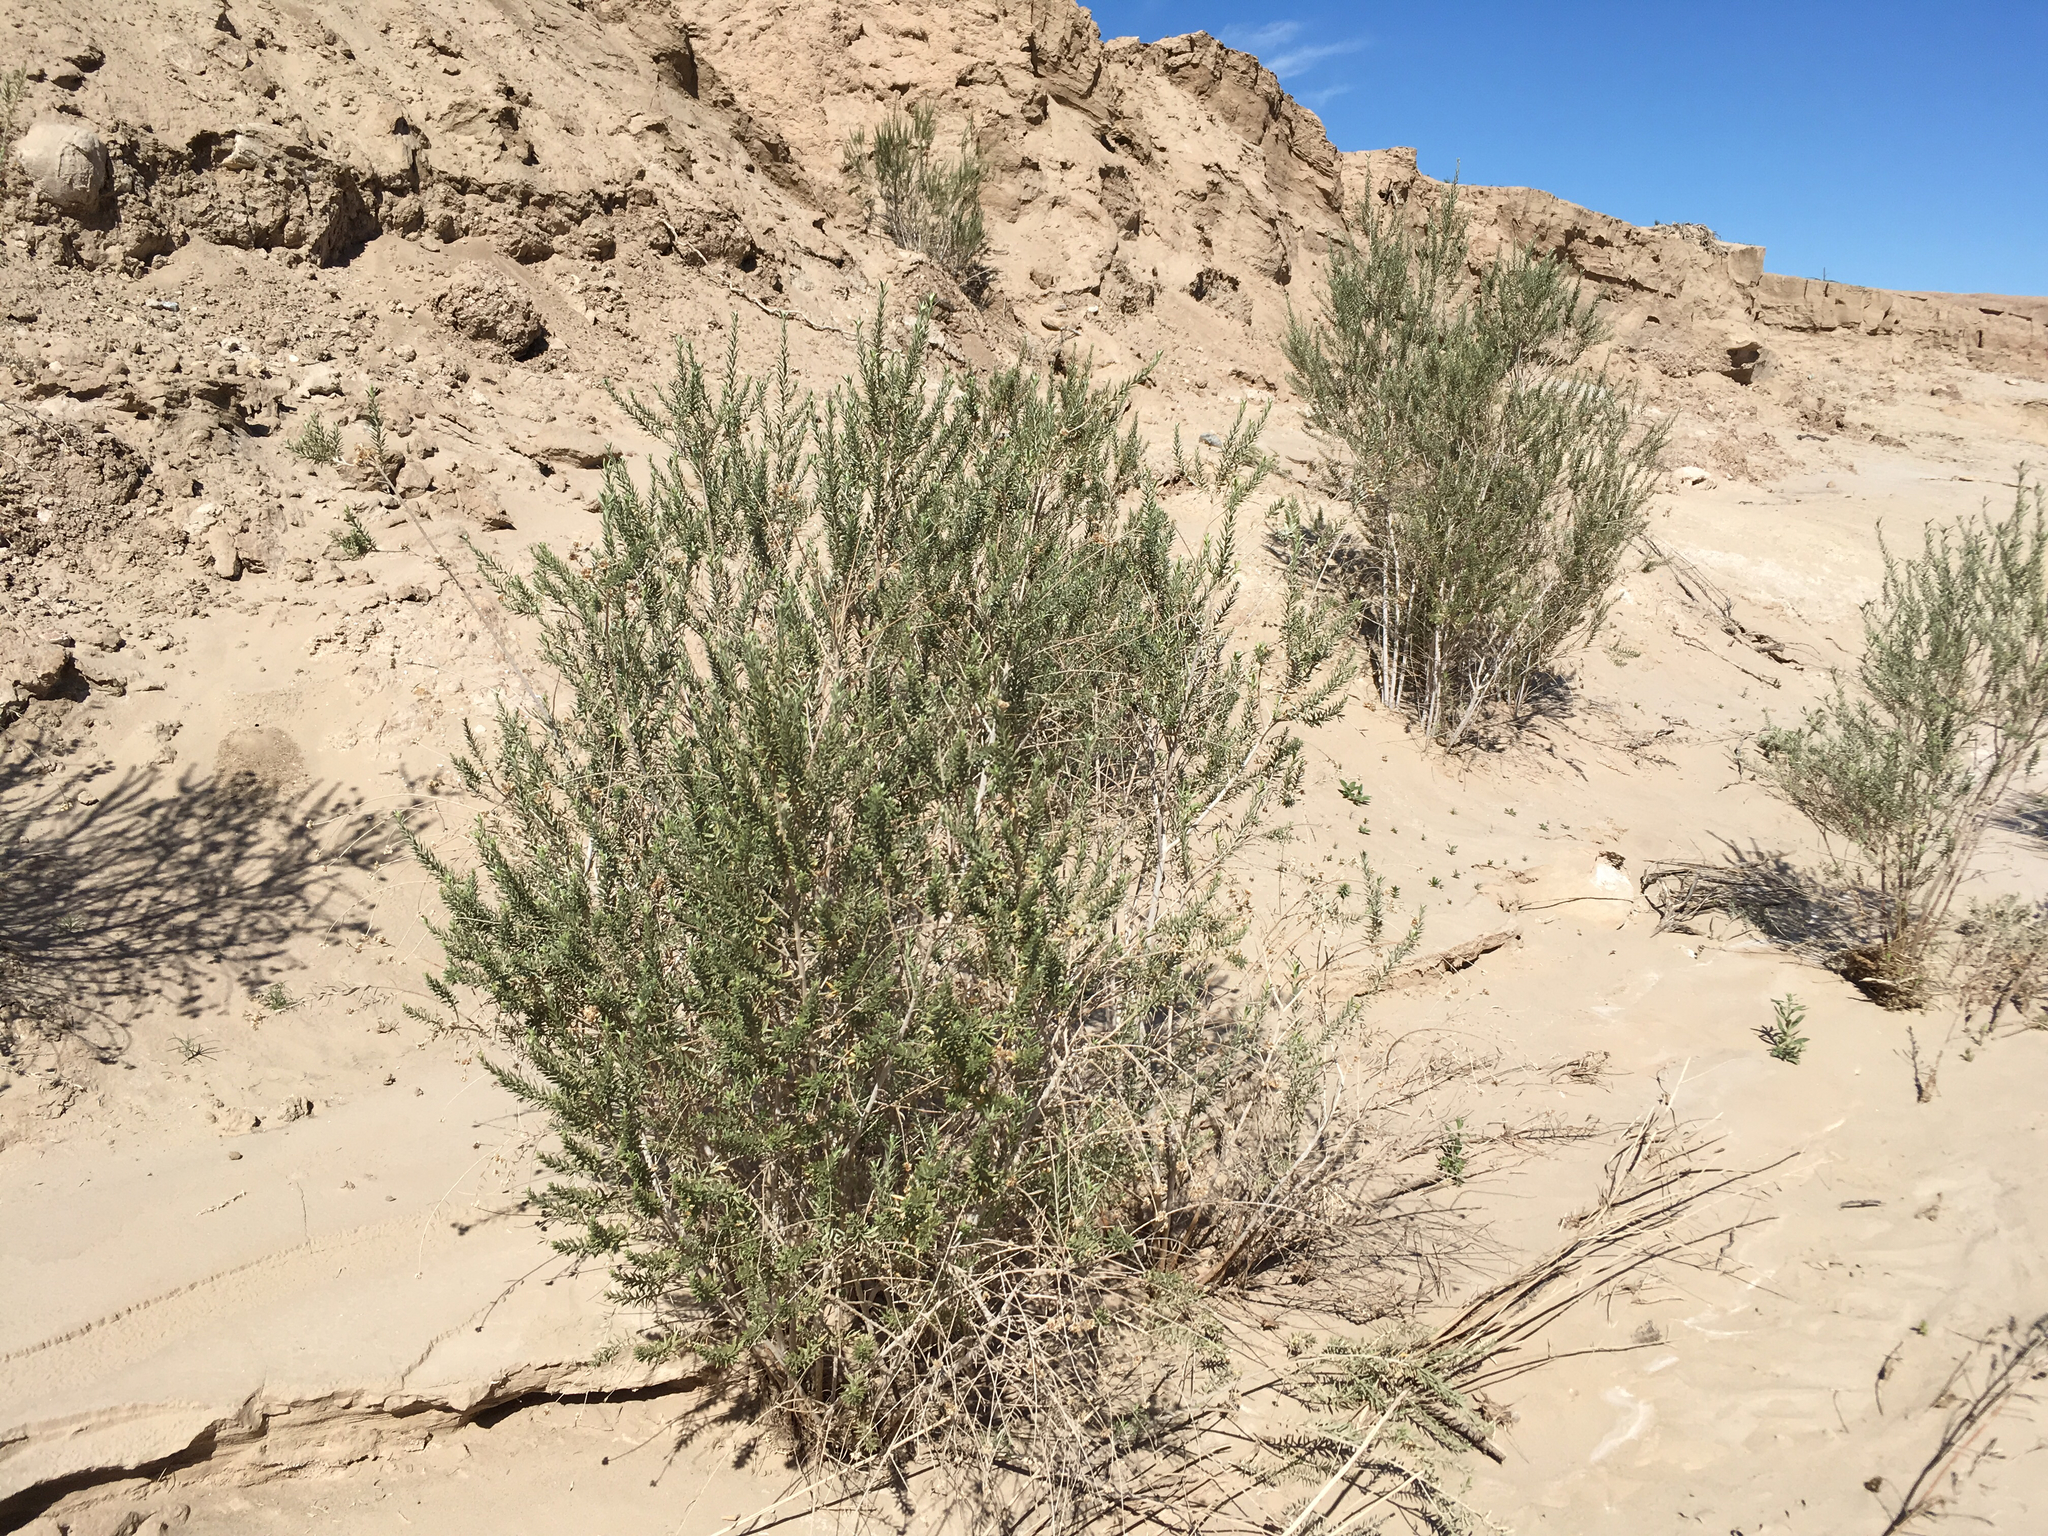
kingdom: Plantae
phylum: Tracheophyta
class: Magnoliopsida
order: Asterales
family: Asteraceae
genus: Pluchea
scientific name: Pluchea sericea
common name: Arrow-weed
